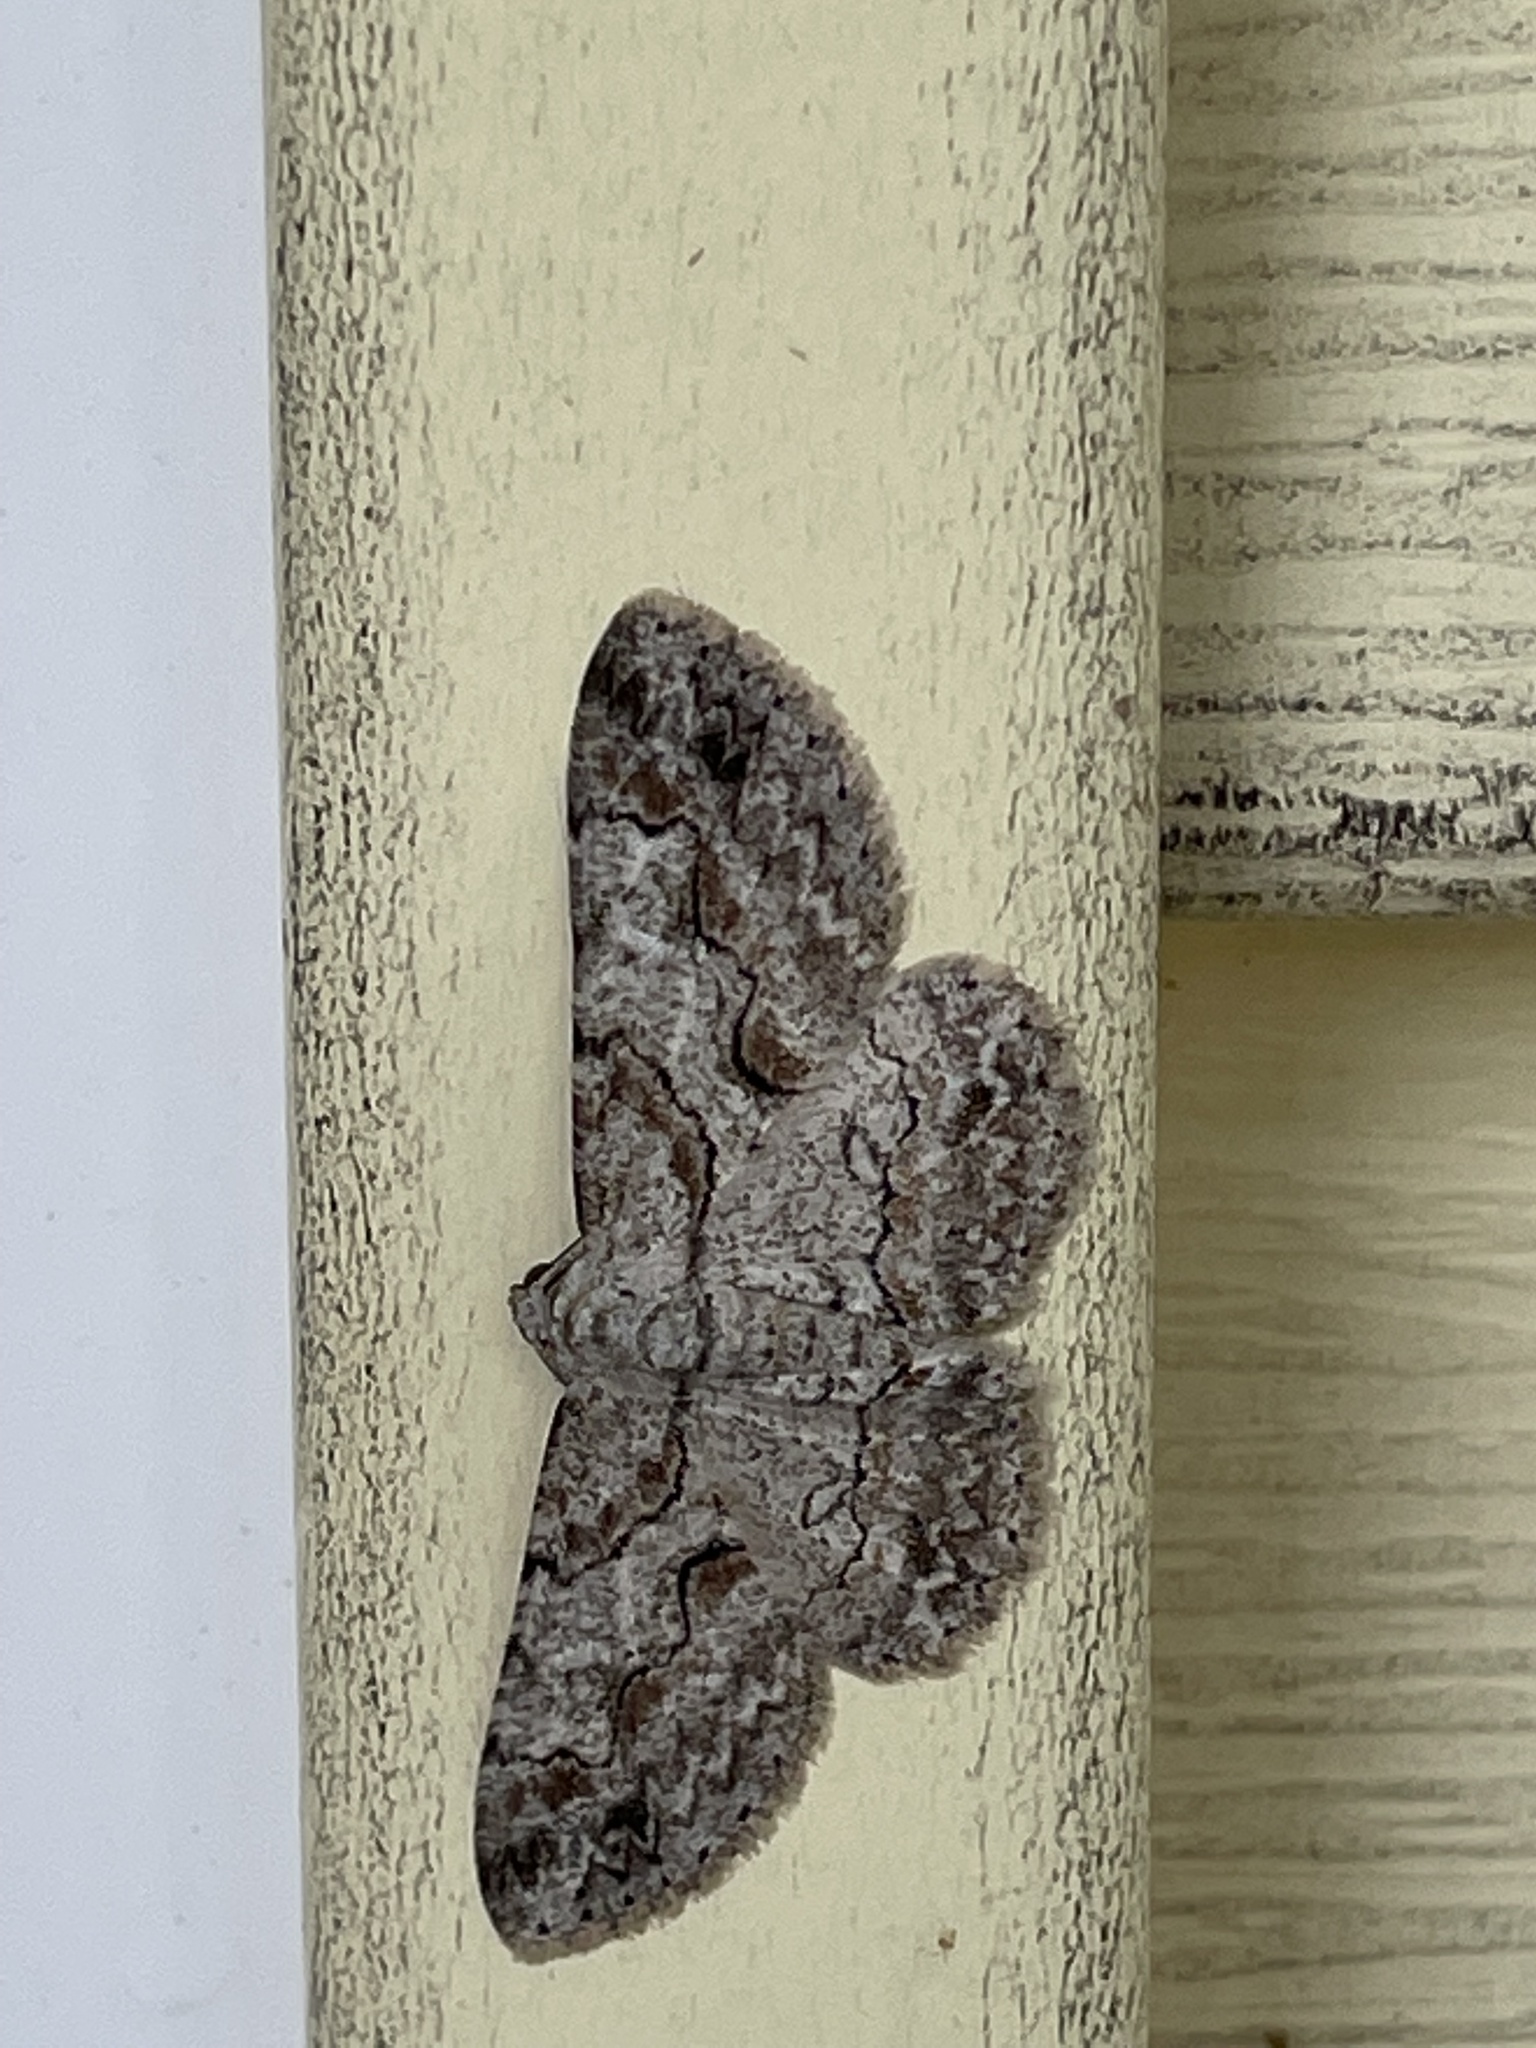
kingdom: Animalia
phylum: Arthropoda
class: Insecta
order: Lepidoptera
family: Geometridae
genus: Iridopsis
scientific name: Iridopsis defectaria
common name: Brown-shaded gray
